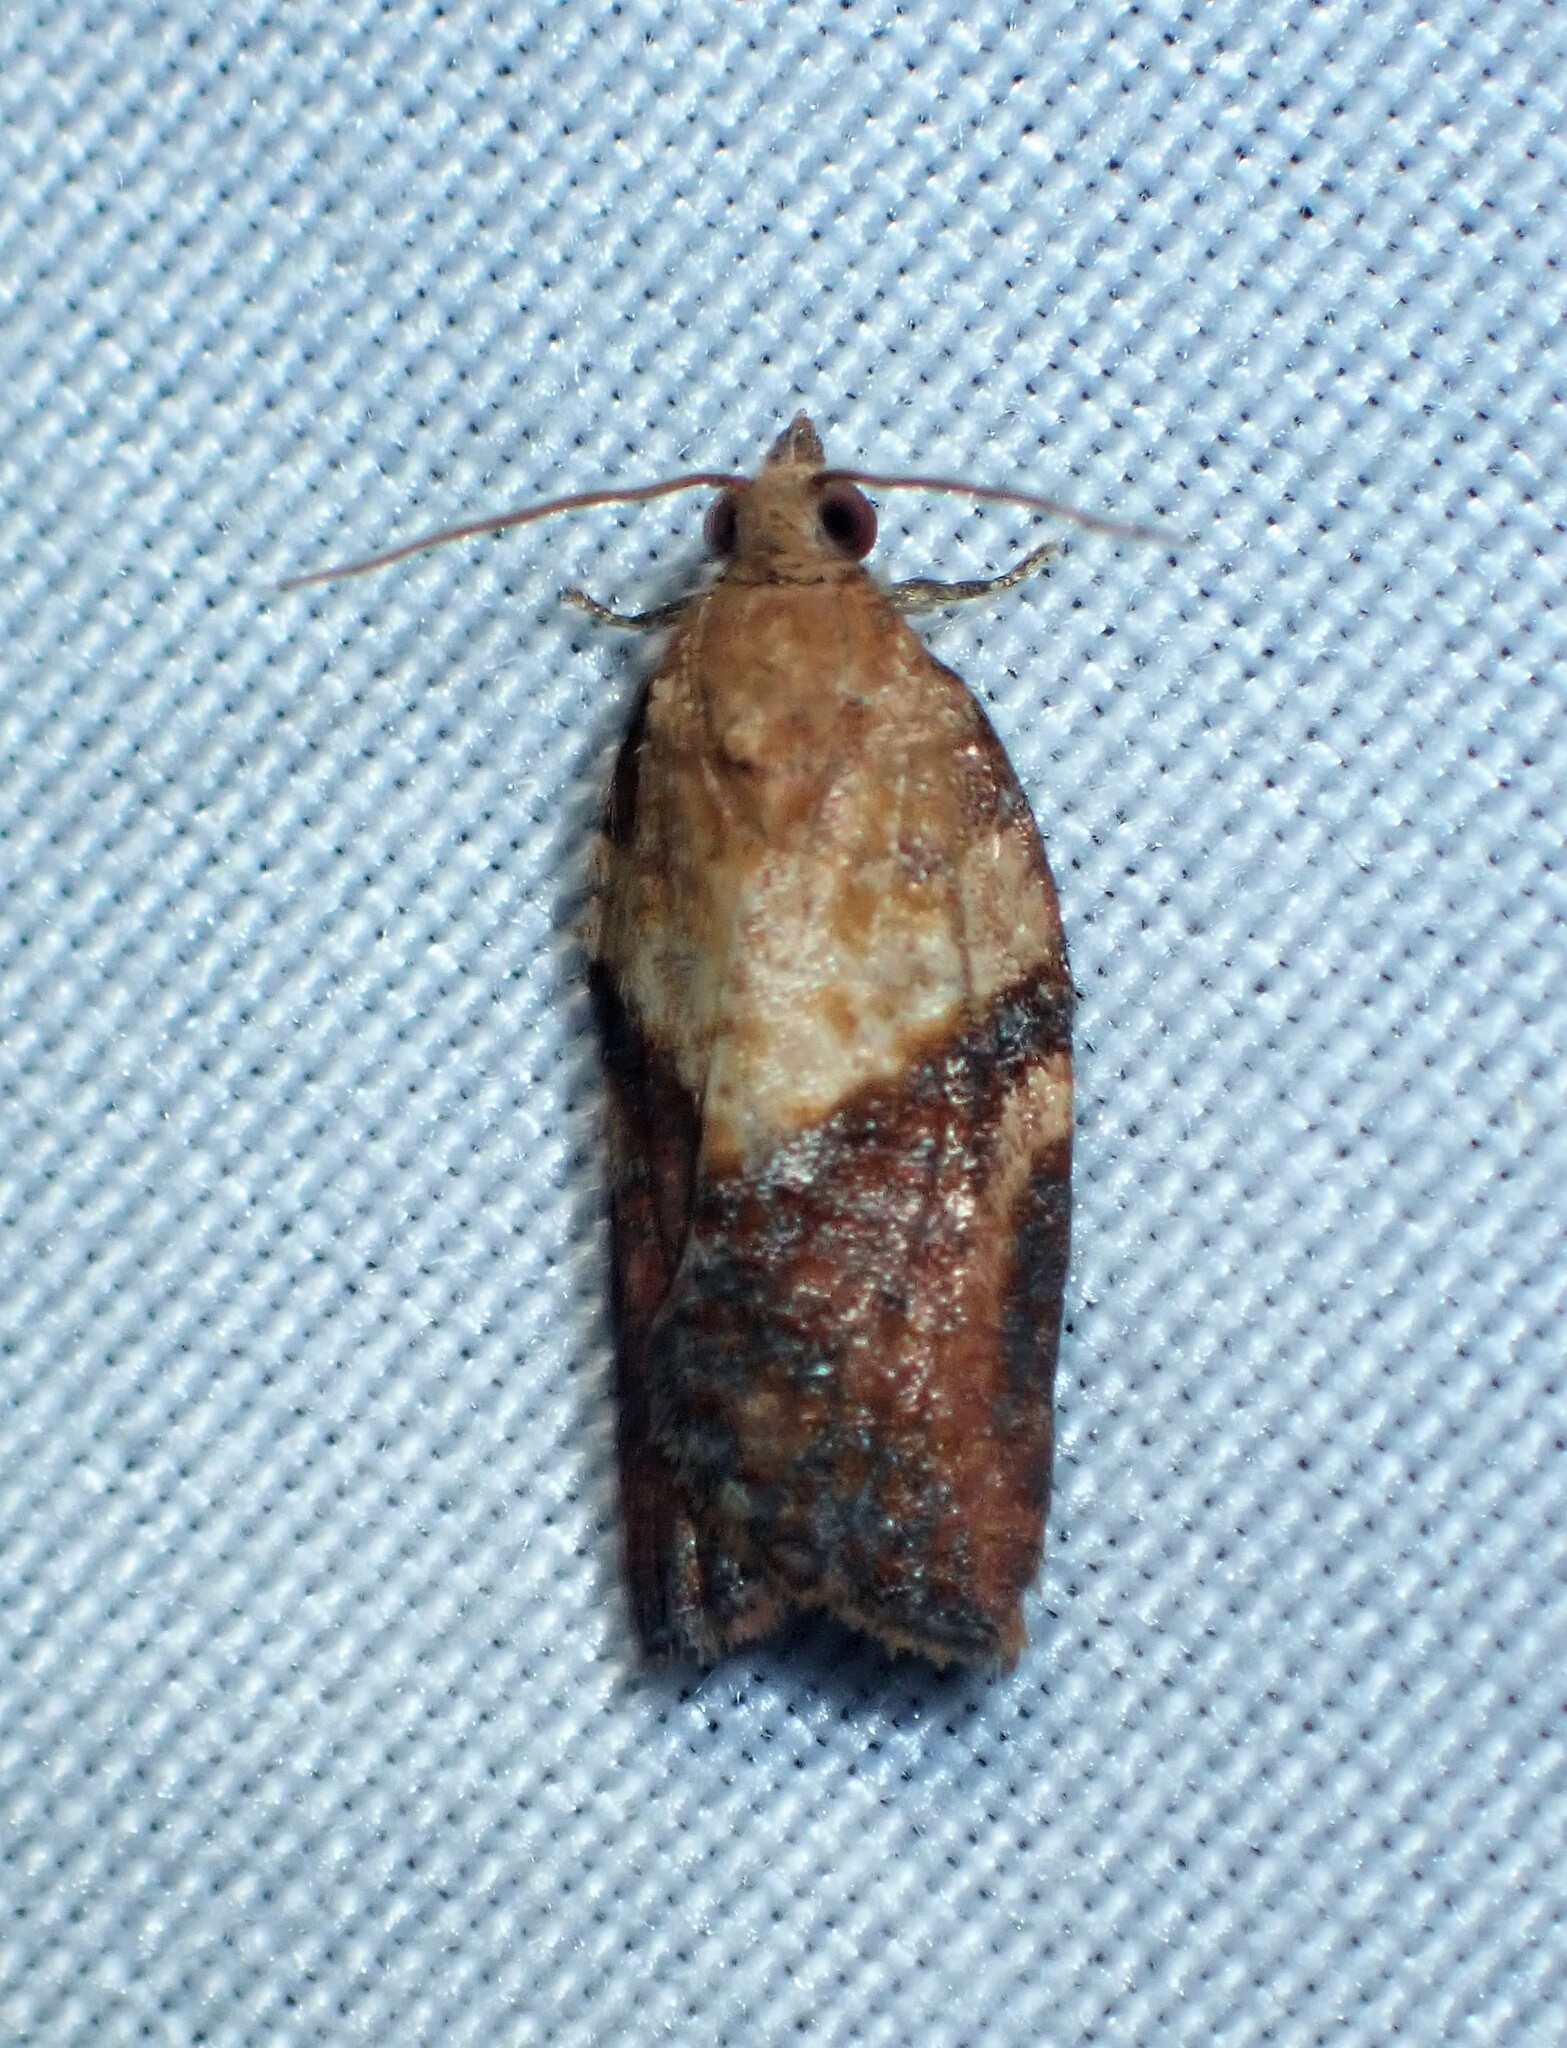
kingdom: Animalia
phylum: Arthropoda
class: Insecta
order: Lepidoptera
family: Tortricidae
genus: Epiphyas
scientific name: Epiphyas postvittana
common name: Light brown apple moth
